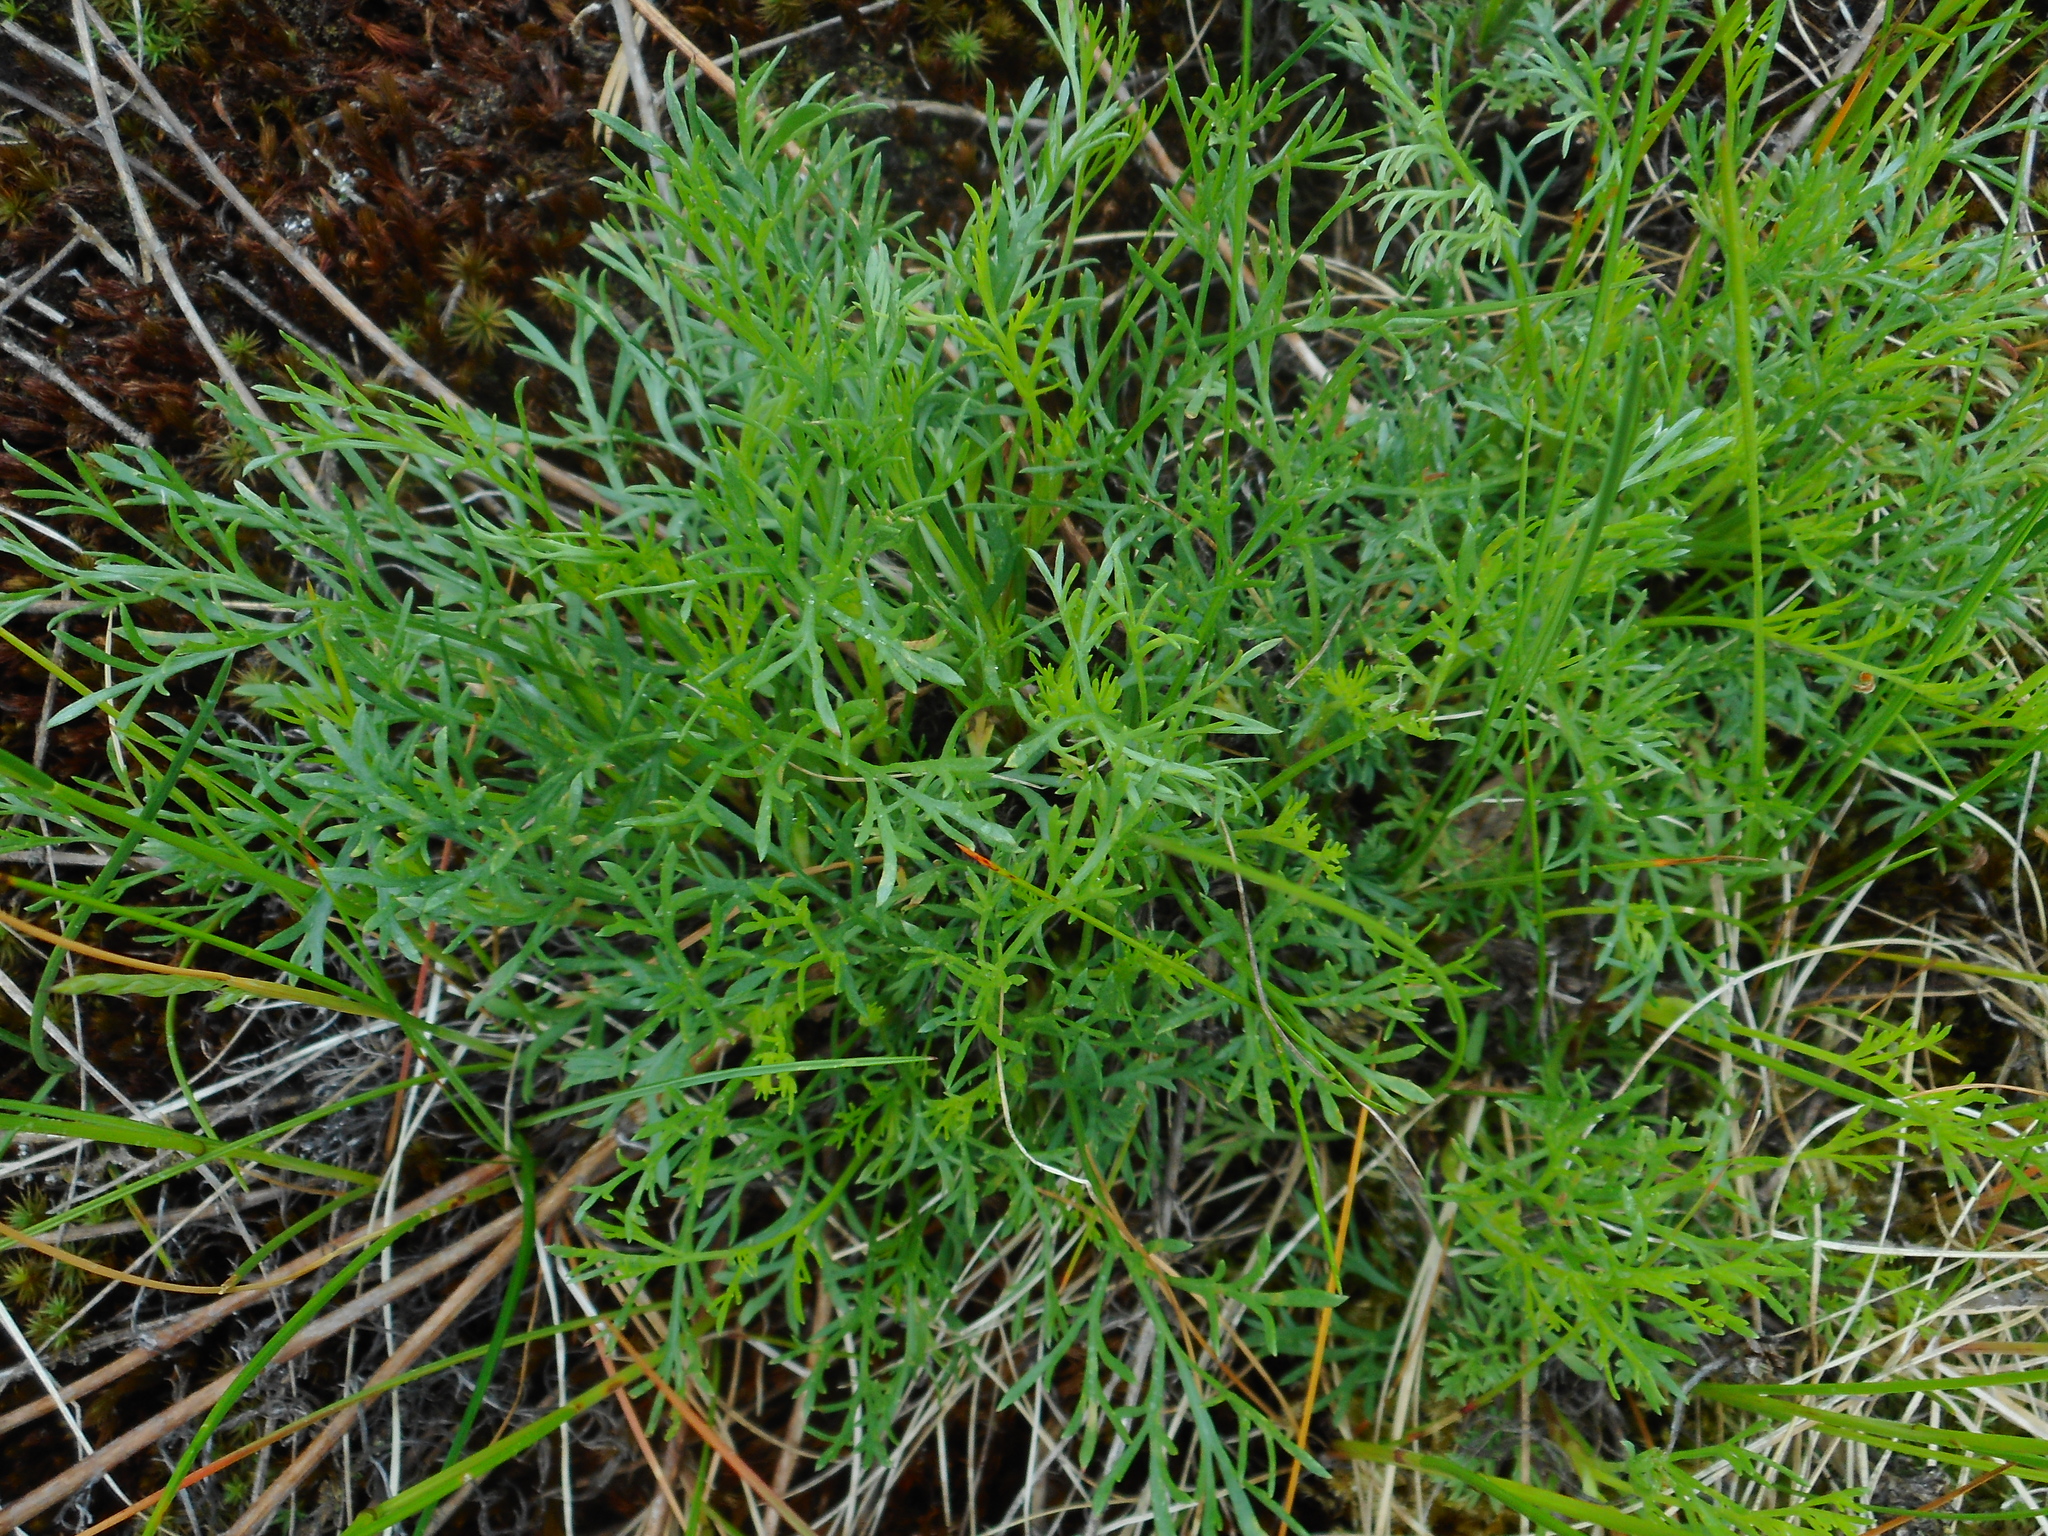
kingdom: Plantae
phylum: Tracheophyta
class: Magnoliopsida
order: Asterales
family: Asteraceae
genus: Artemisia
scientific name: Artemisia campestris
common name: Field wormwood
